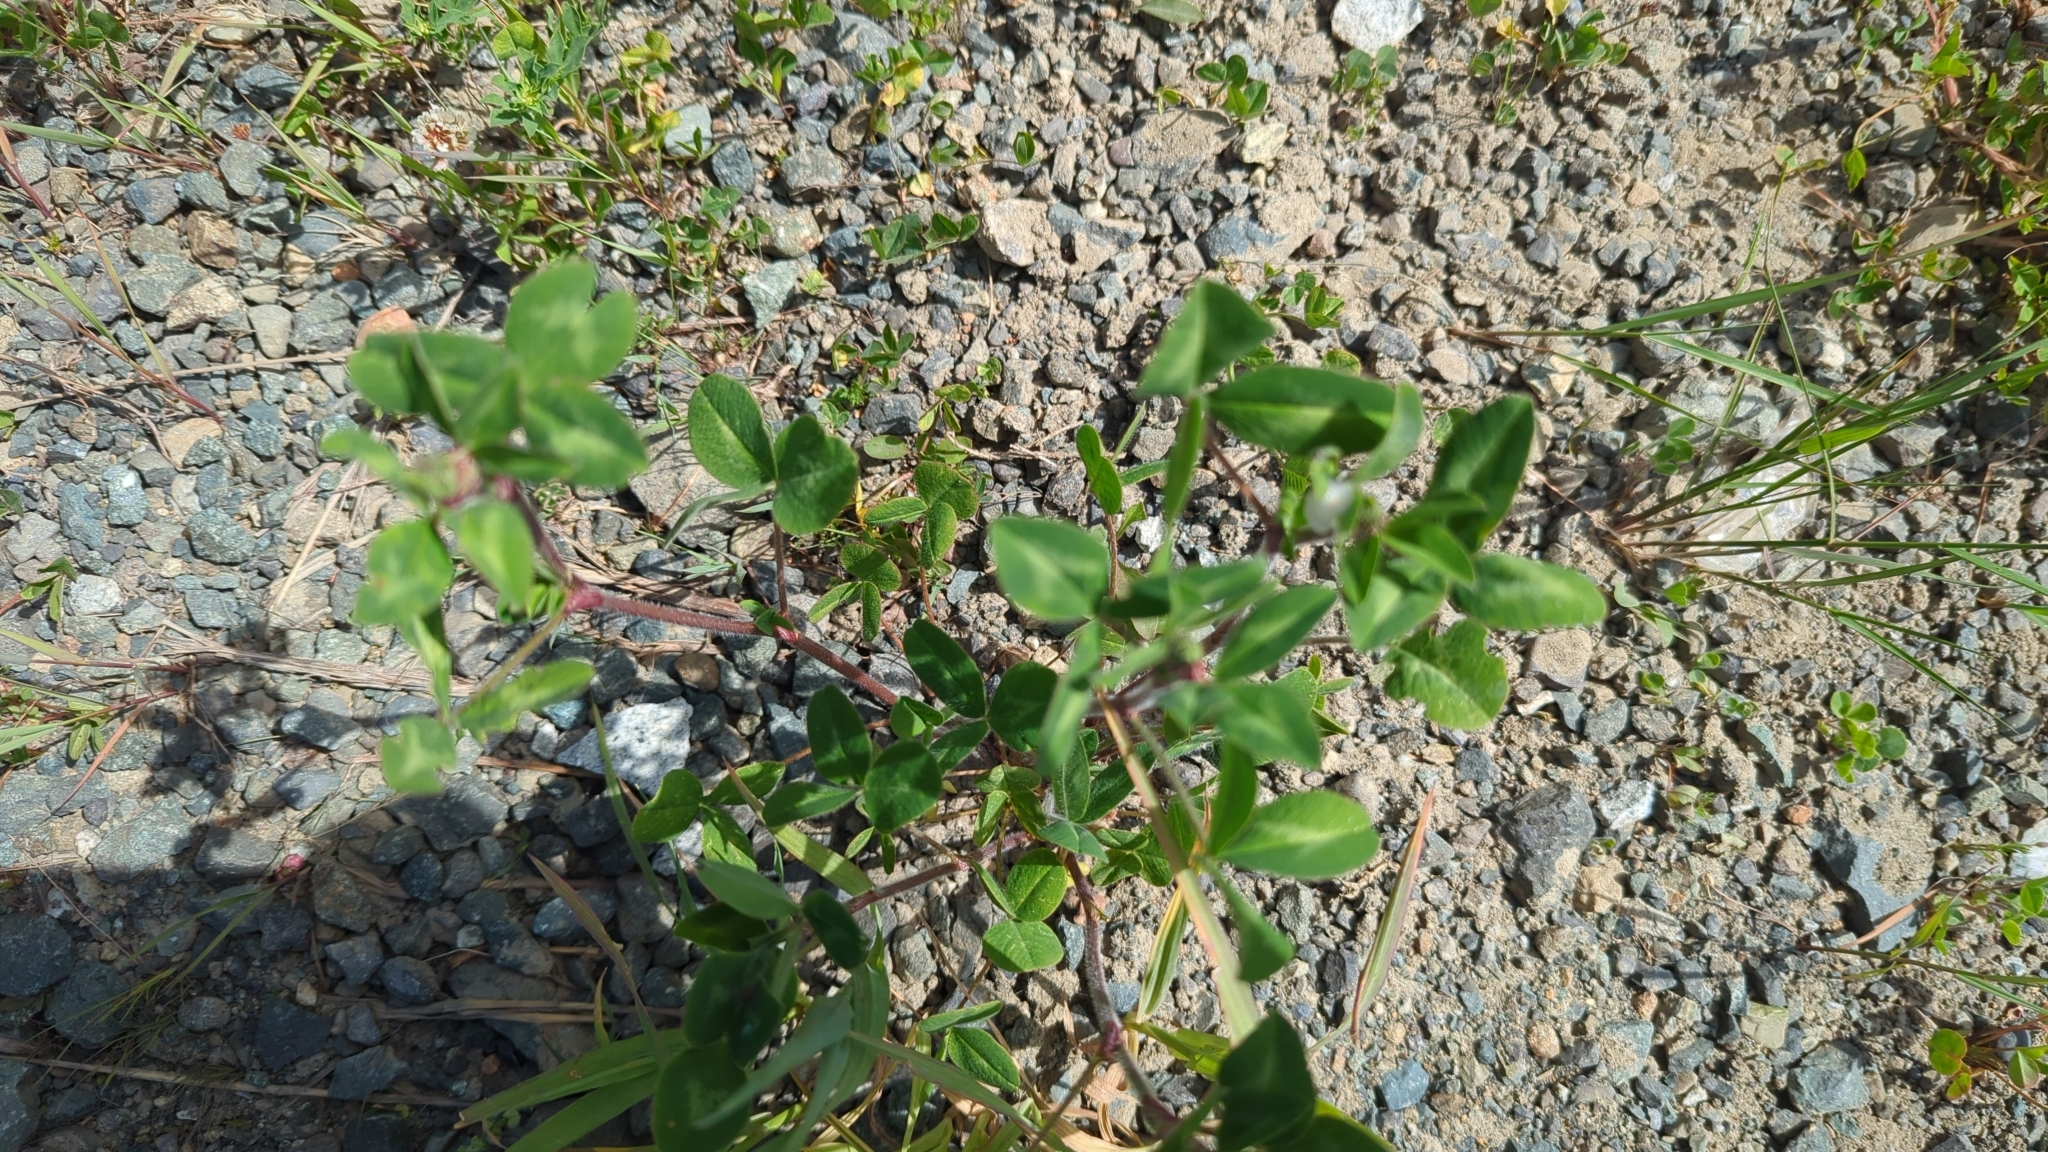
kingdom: Plantae
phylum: Tracheophyta
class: Magnoliopsida
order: Fabales
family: Fabaceae
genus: Trifolium
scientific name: Trifolium pratense
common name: Red clover
